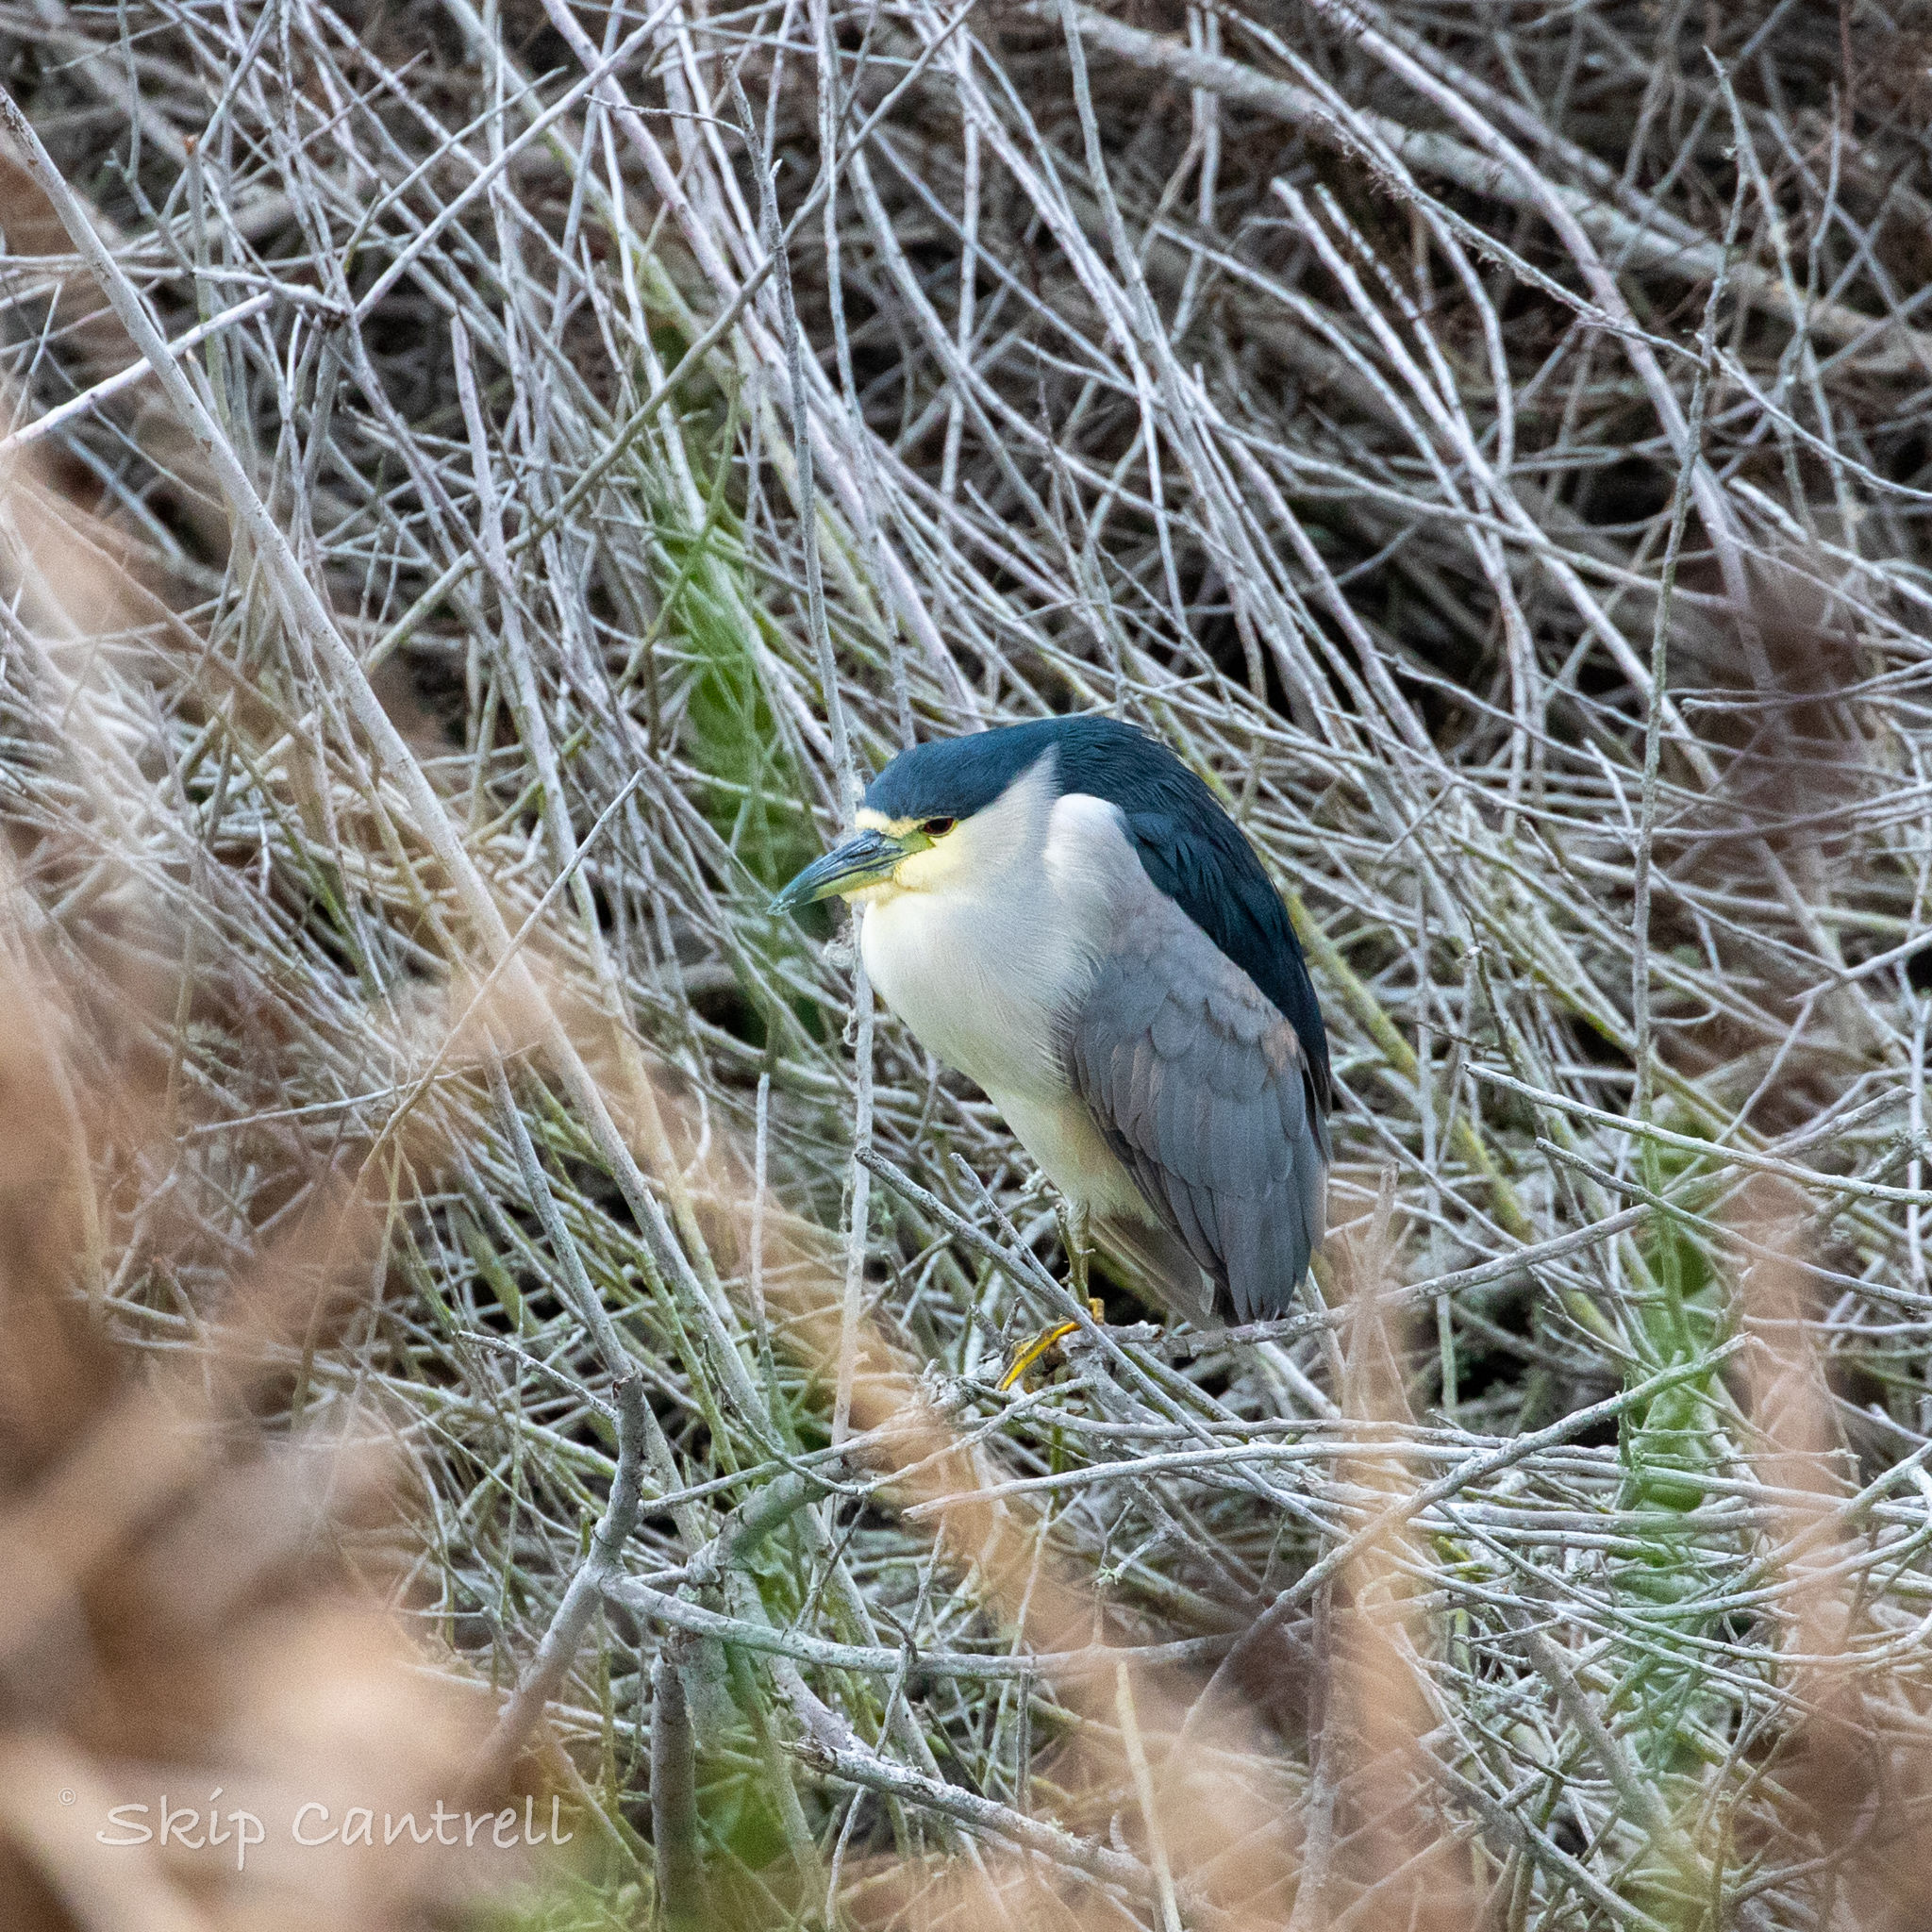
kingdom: Animalia
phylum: Chordata
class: Aves
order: Pelecaniformes
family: Ardeidae
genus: Nycticorax
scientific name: Nycticorax nycticorax
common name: Black-crowned night heron
